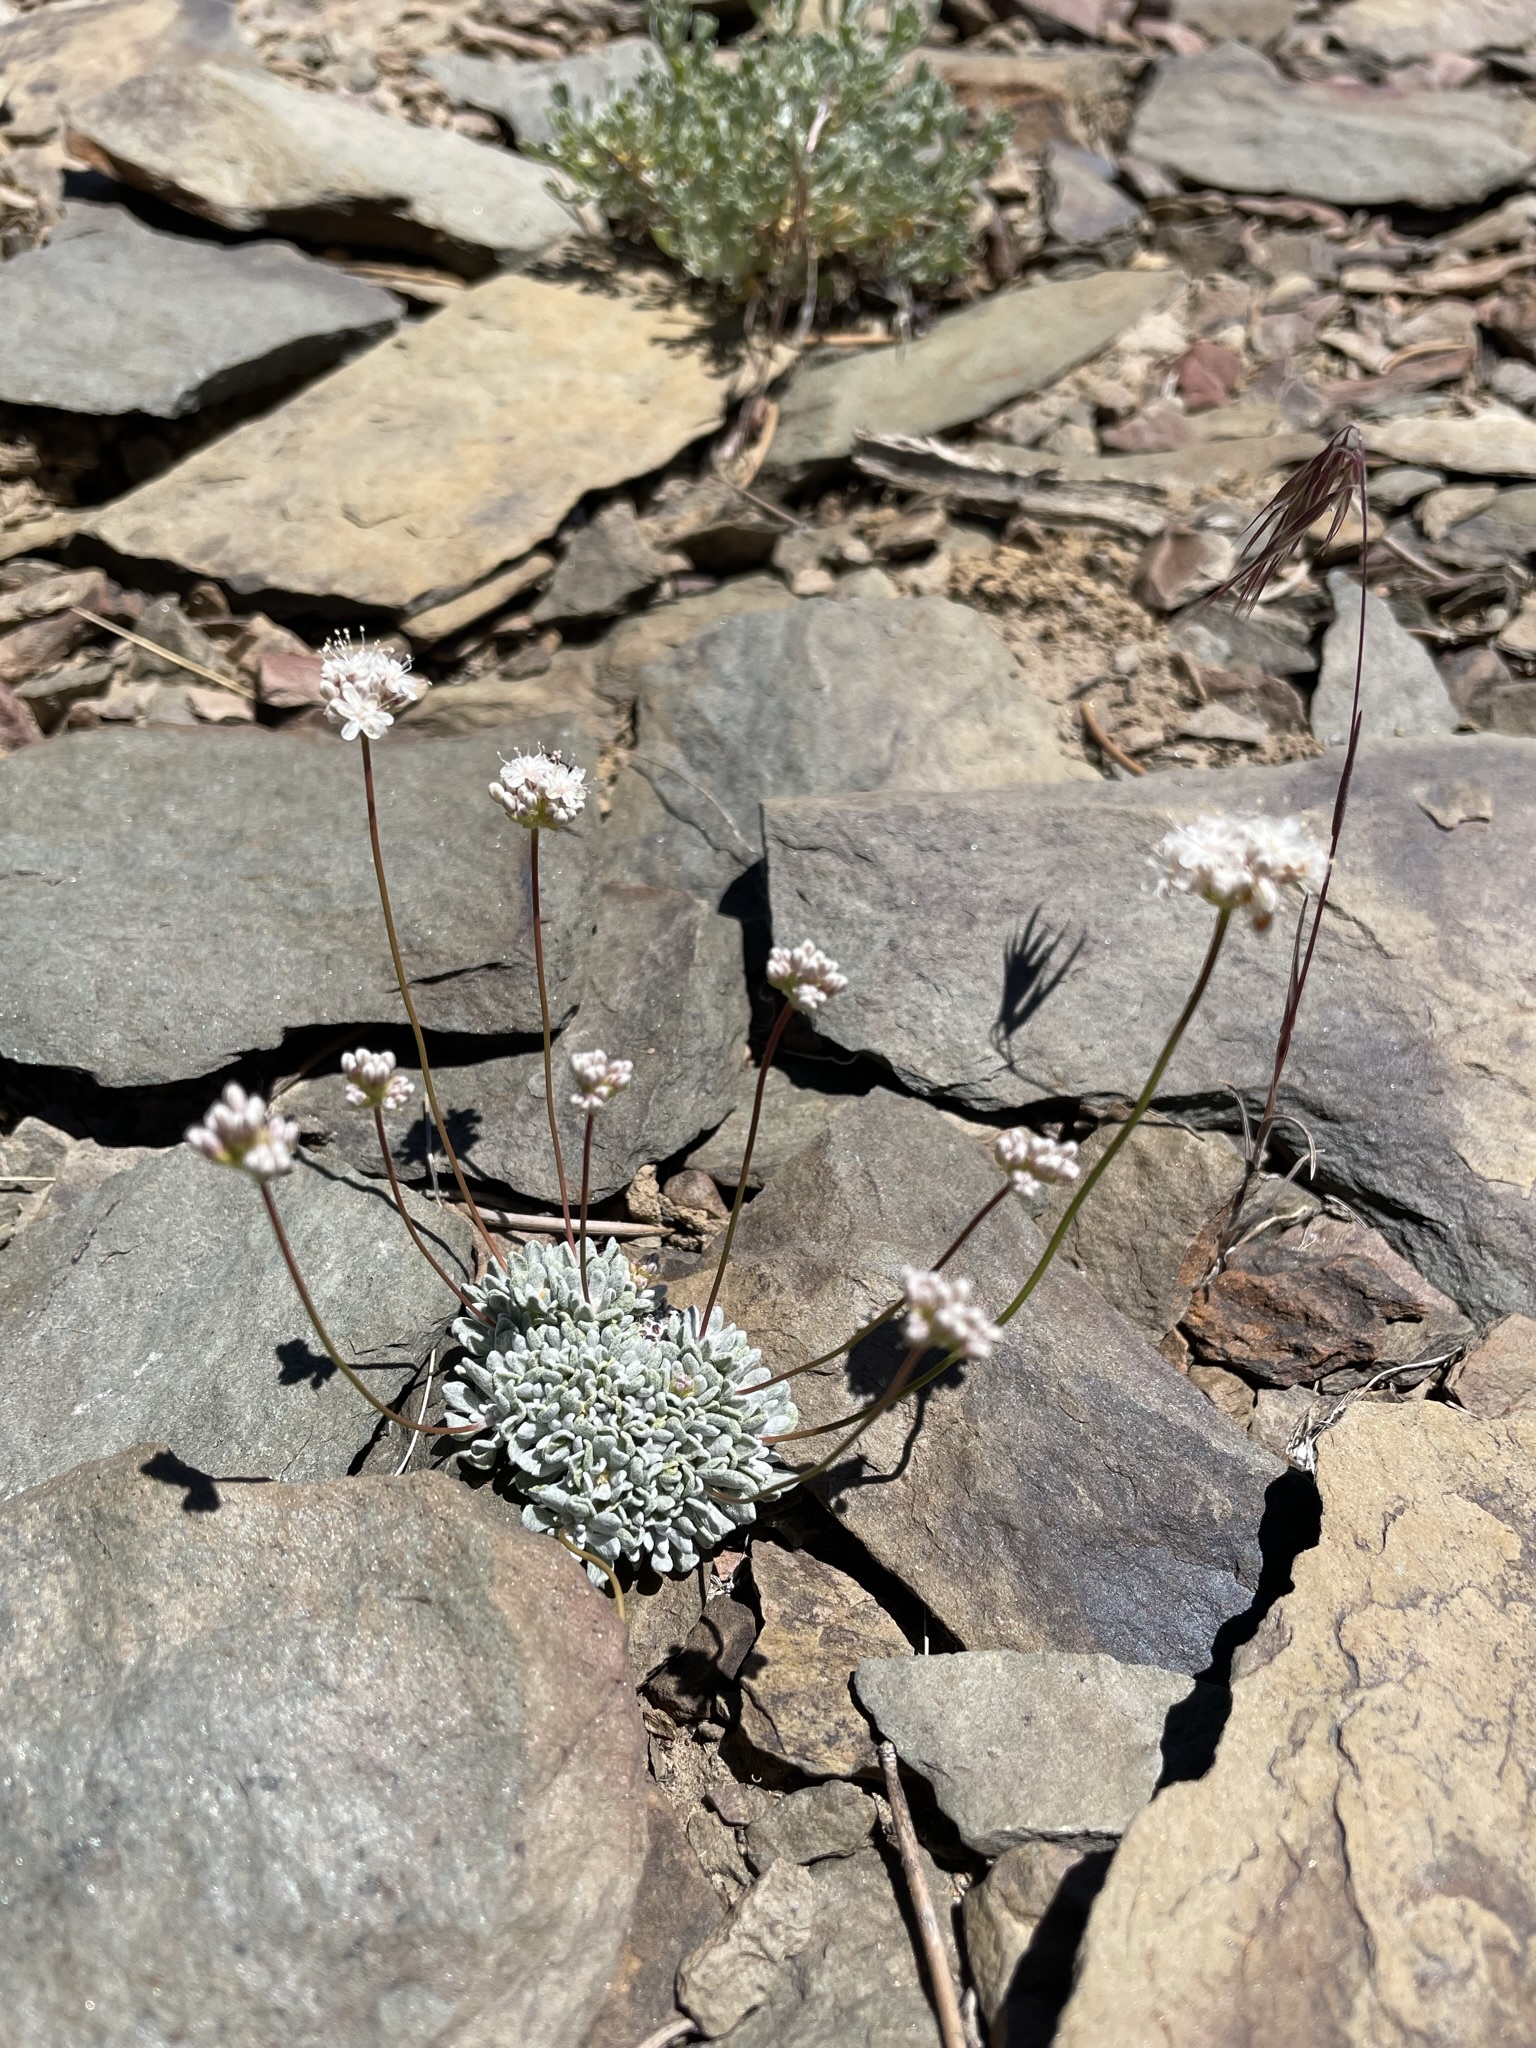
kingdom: Plantae
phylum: Tracheophyta
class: Magnoliopsida
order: Caryophyllales
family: Polygonaceae
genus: Eriogonum
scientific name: Eriogonum kennedyi
